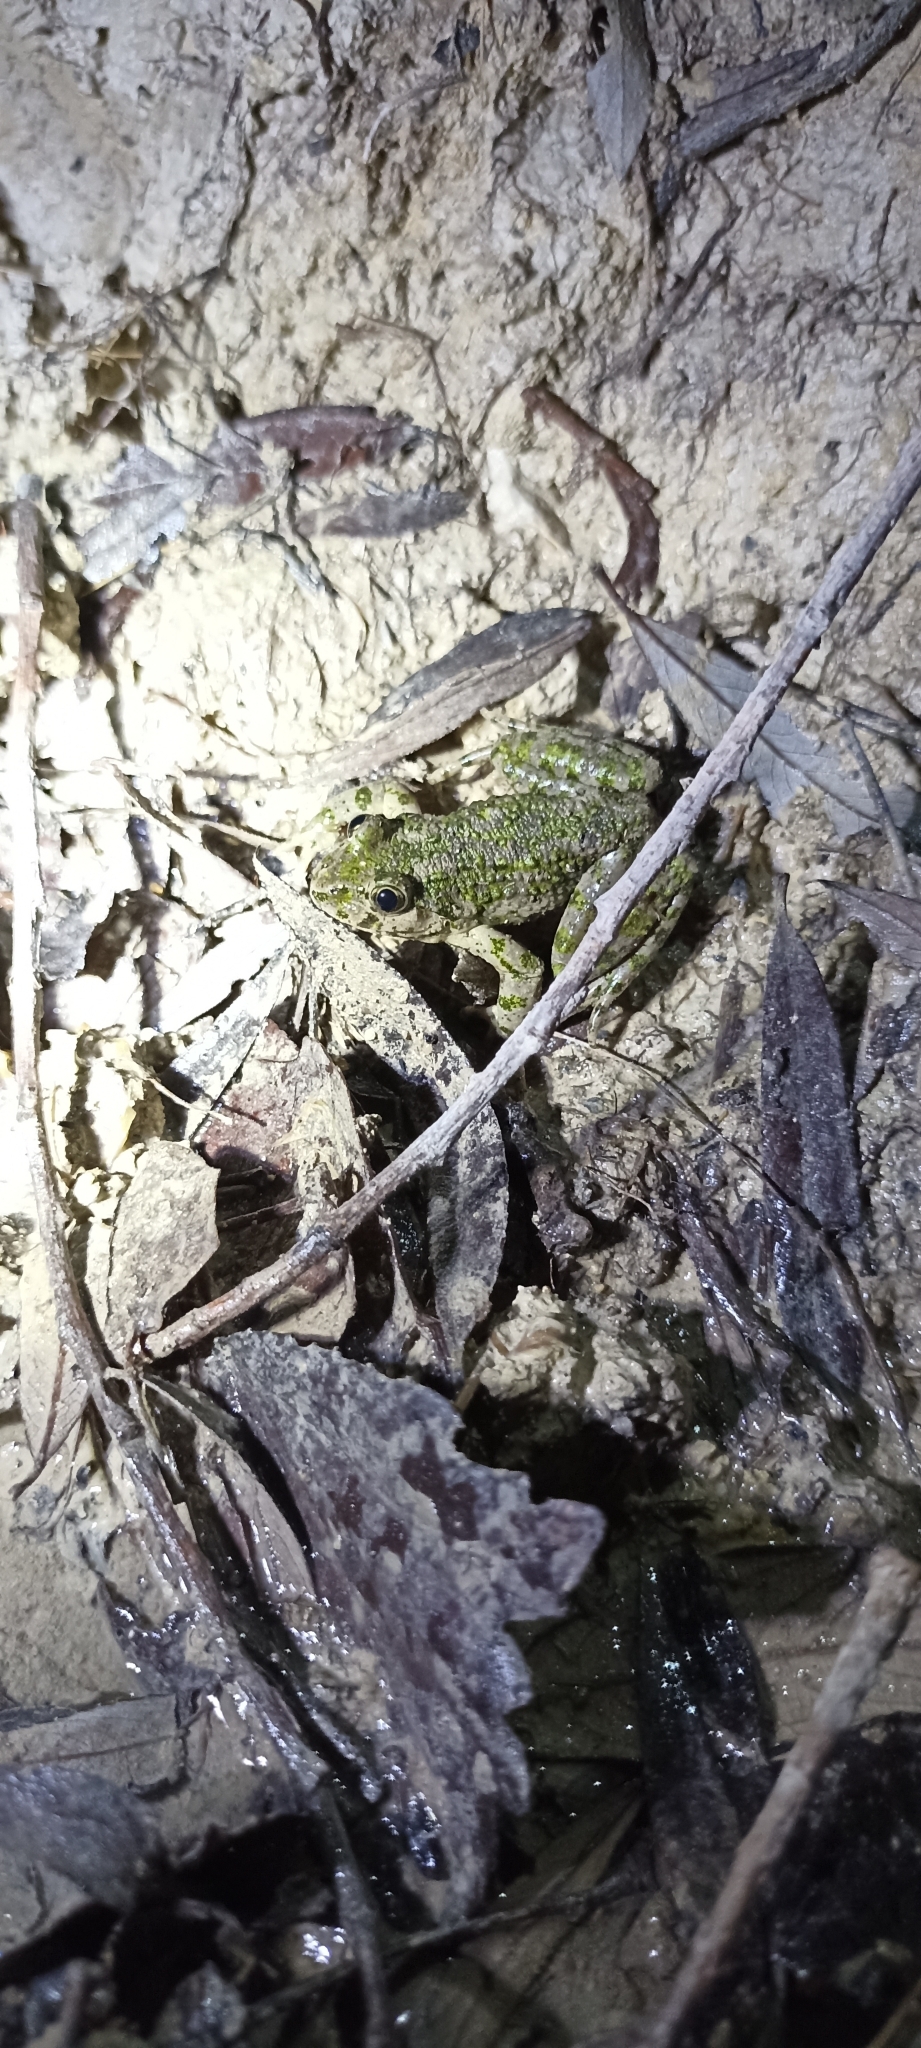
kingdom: Animalia
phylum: Chordata
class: Amphibia
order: Anura
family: Pelodytidae
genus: Pelodytes
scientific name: Pelodytes punctatus
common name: Parsley frog
